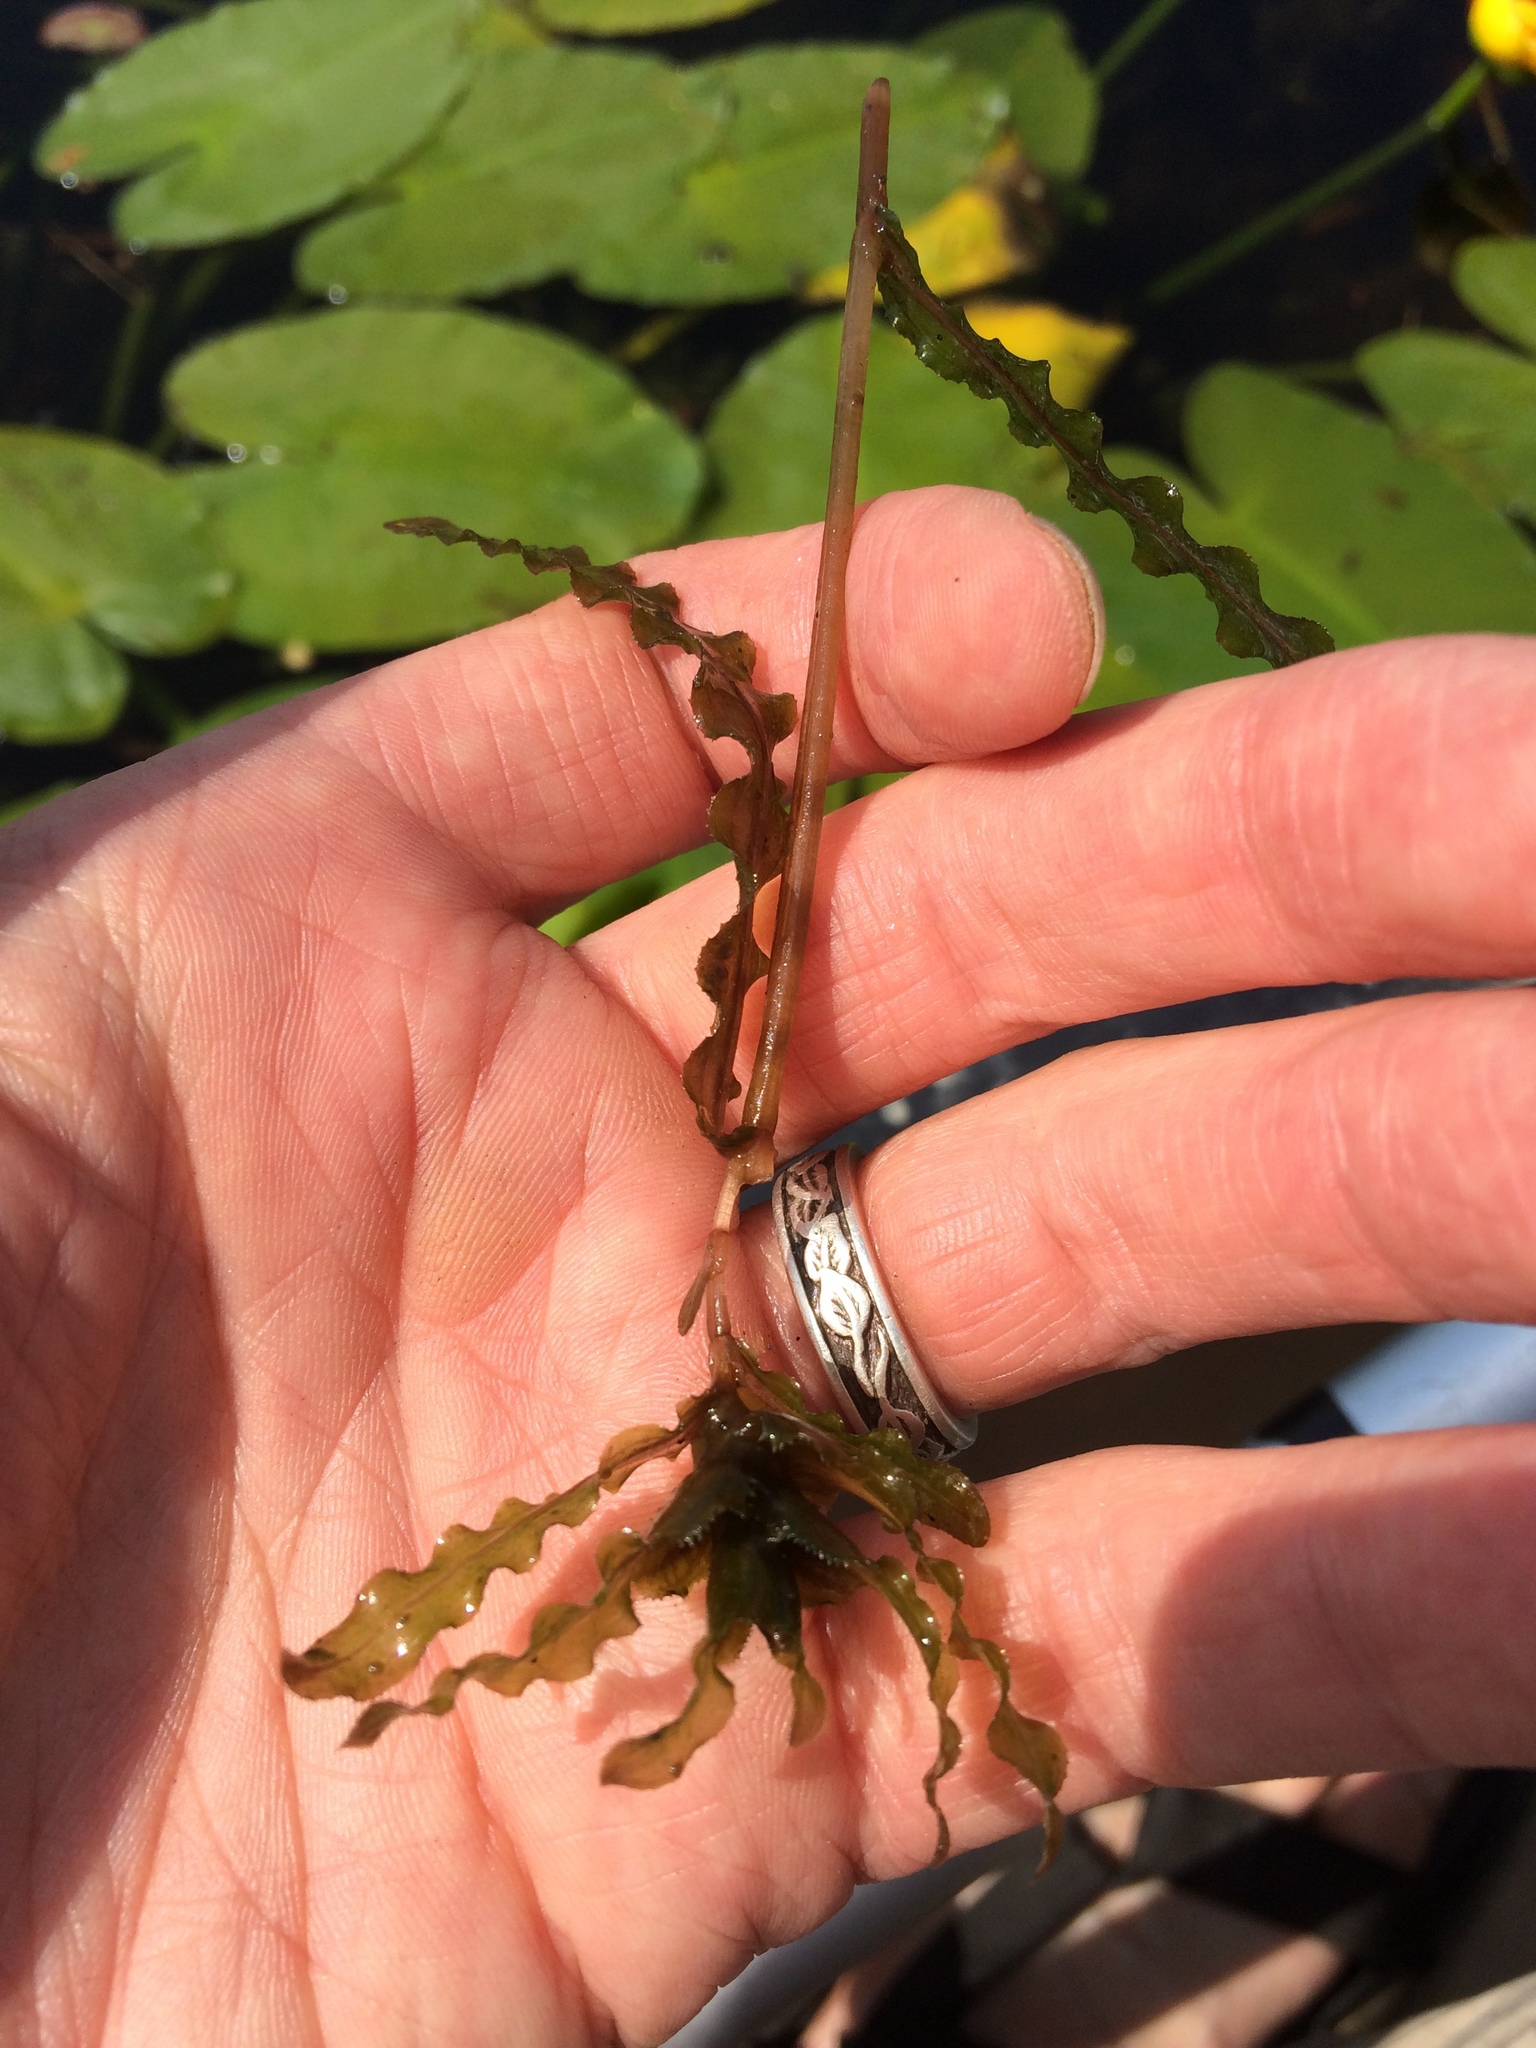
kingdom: Plantae
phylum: Tracheophyta
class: Liliopsida
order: Alismatales
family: Potamogetonaceae
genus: Potamogeton
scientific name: Potamogeton crispus
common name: Curled pondweed
